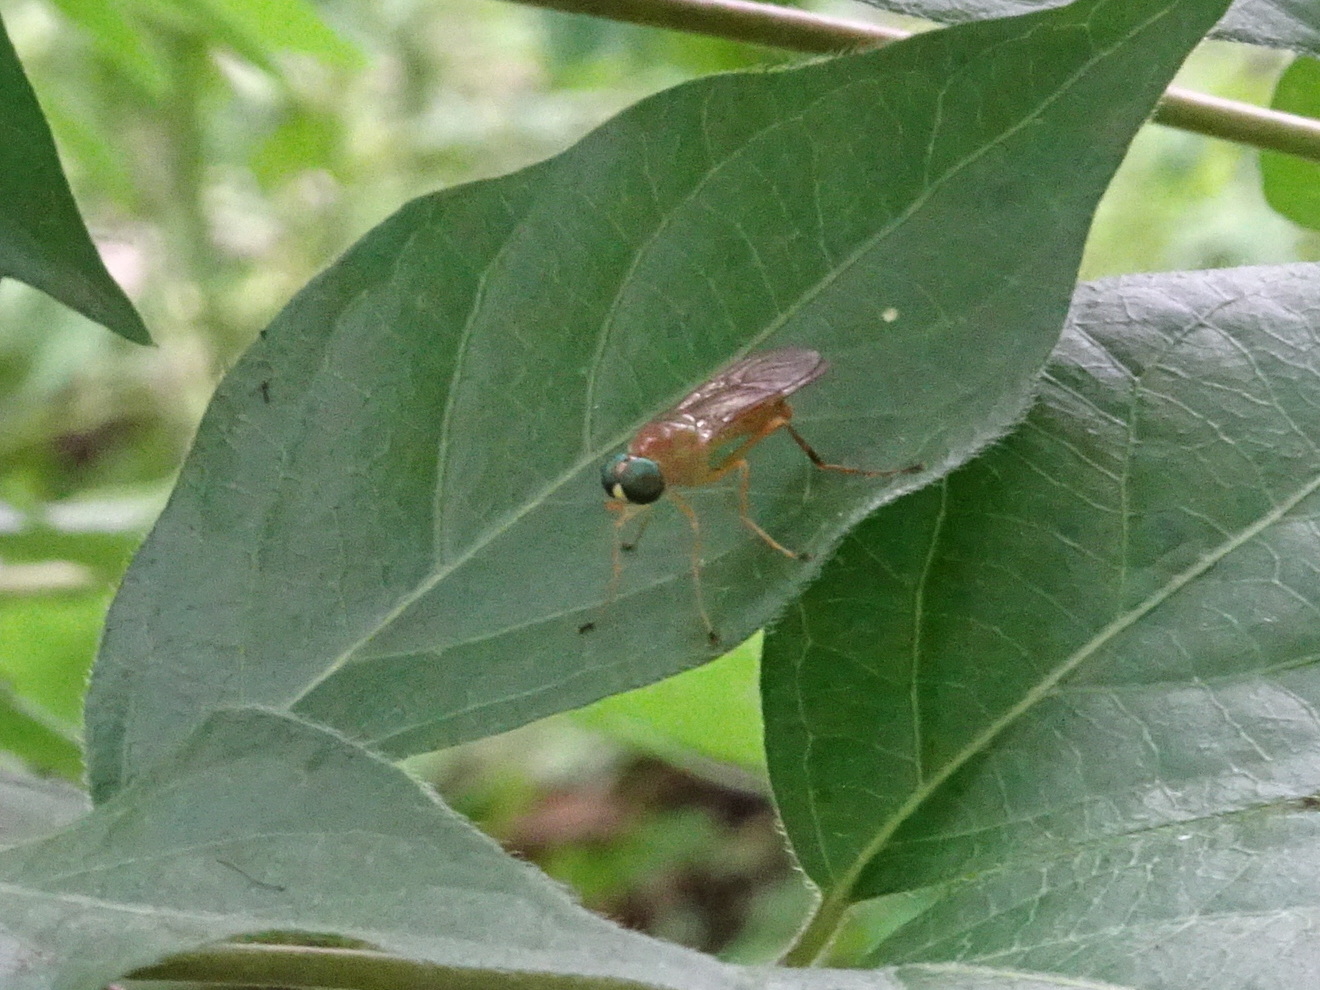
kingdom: Animalia
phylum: Arthropoda
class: Insecta
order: Diptera
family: Stratiomyidae
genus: Ptecticus
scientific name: Ptecticus trivittatus
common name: Compost fly
